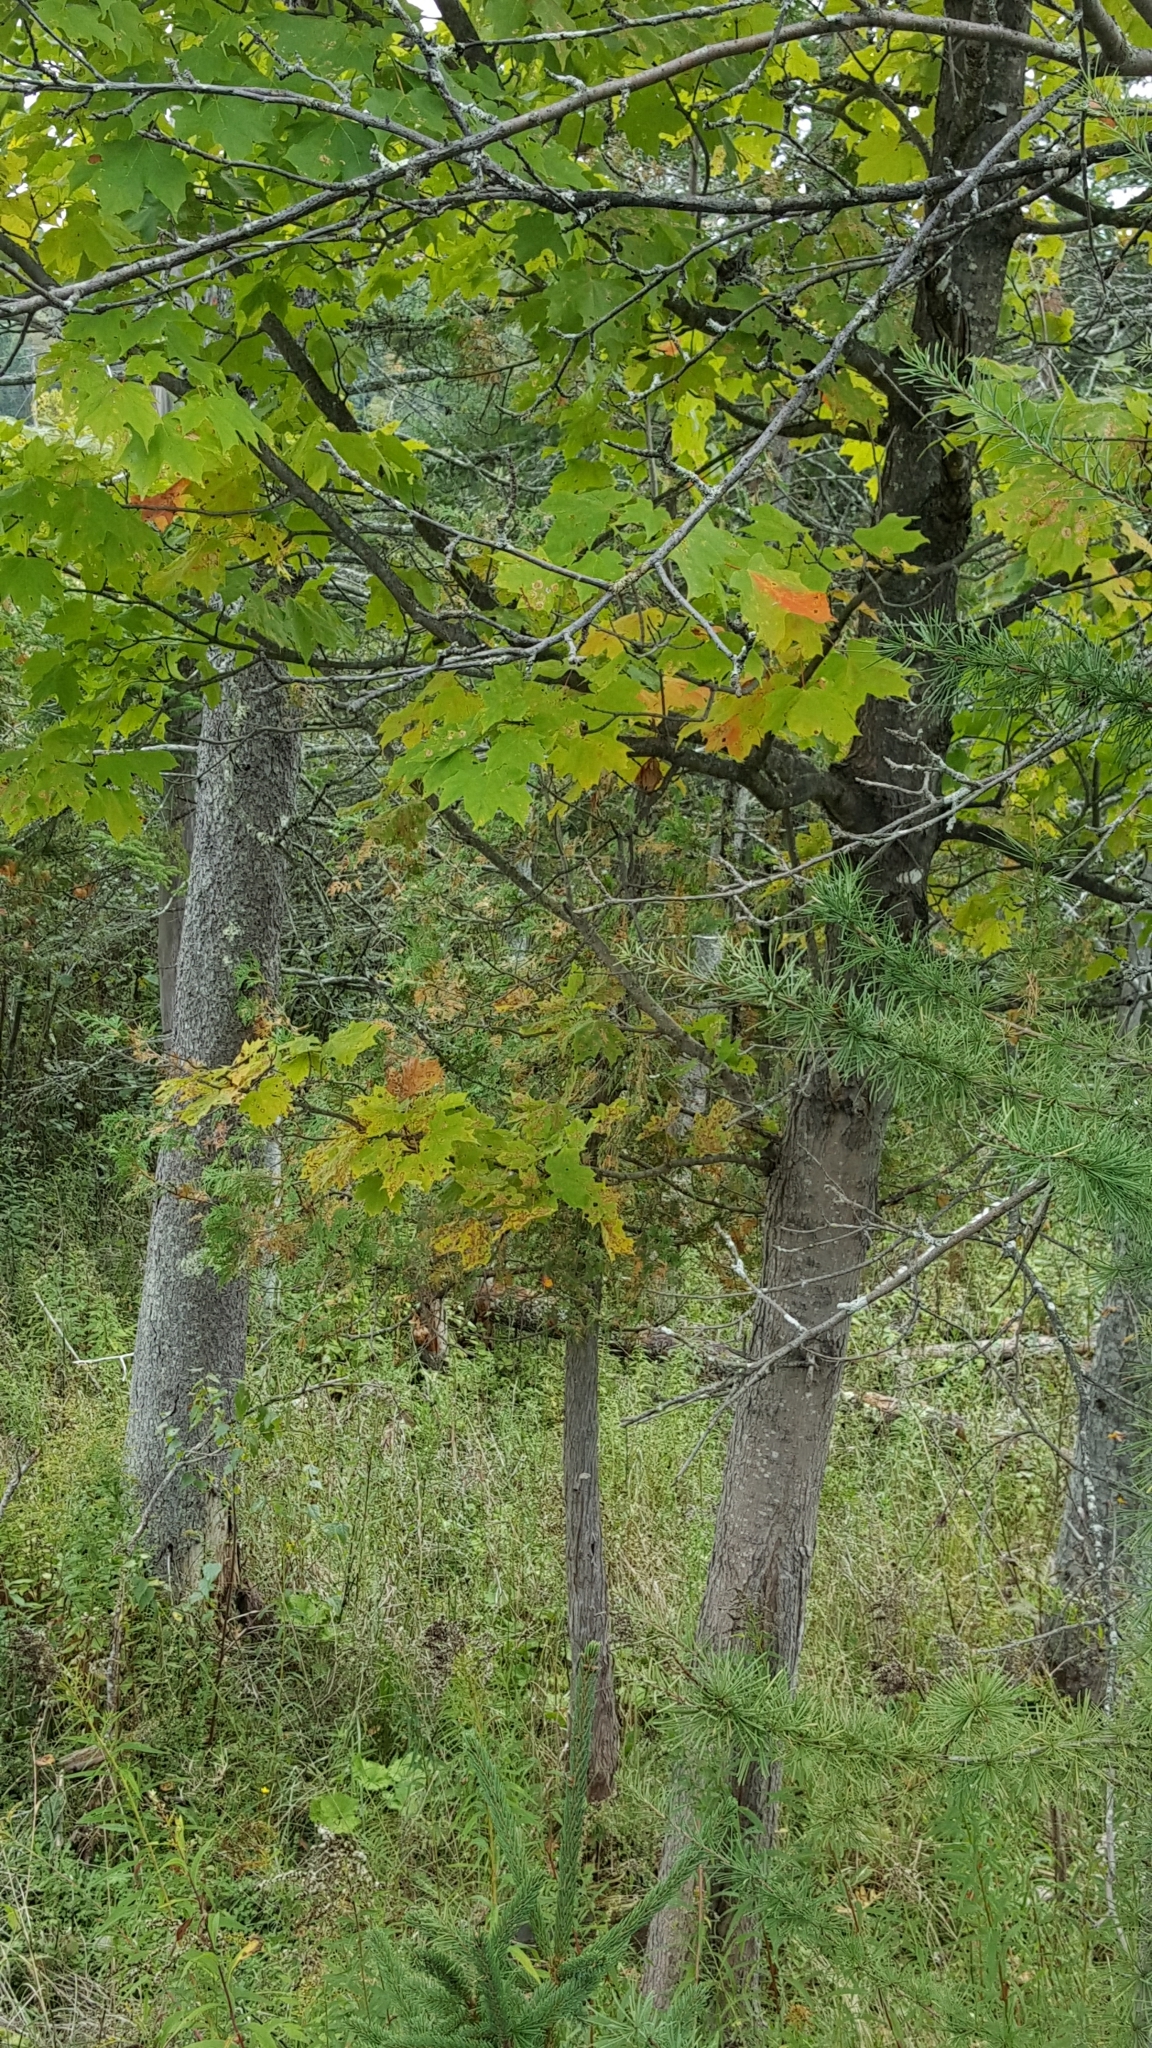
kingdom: Plantae
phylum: Tracheophyta
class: Magnoliopsida
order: Sapindales
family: Sapindaceae
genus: Acer
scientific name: Acer saccharum
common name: Sugar maple
